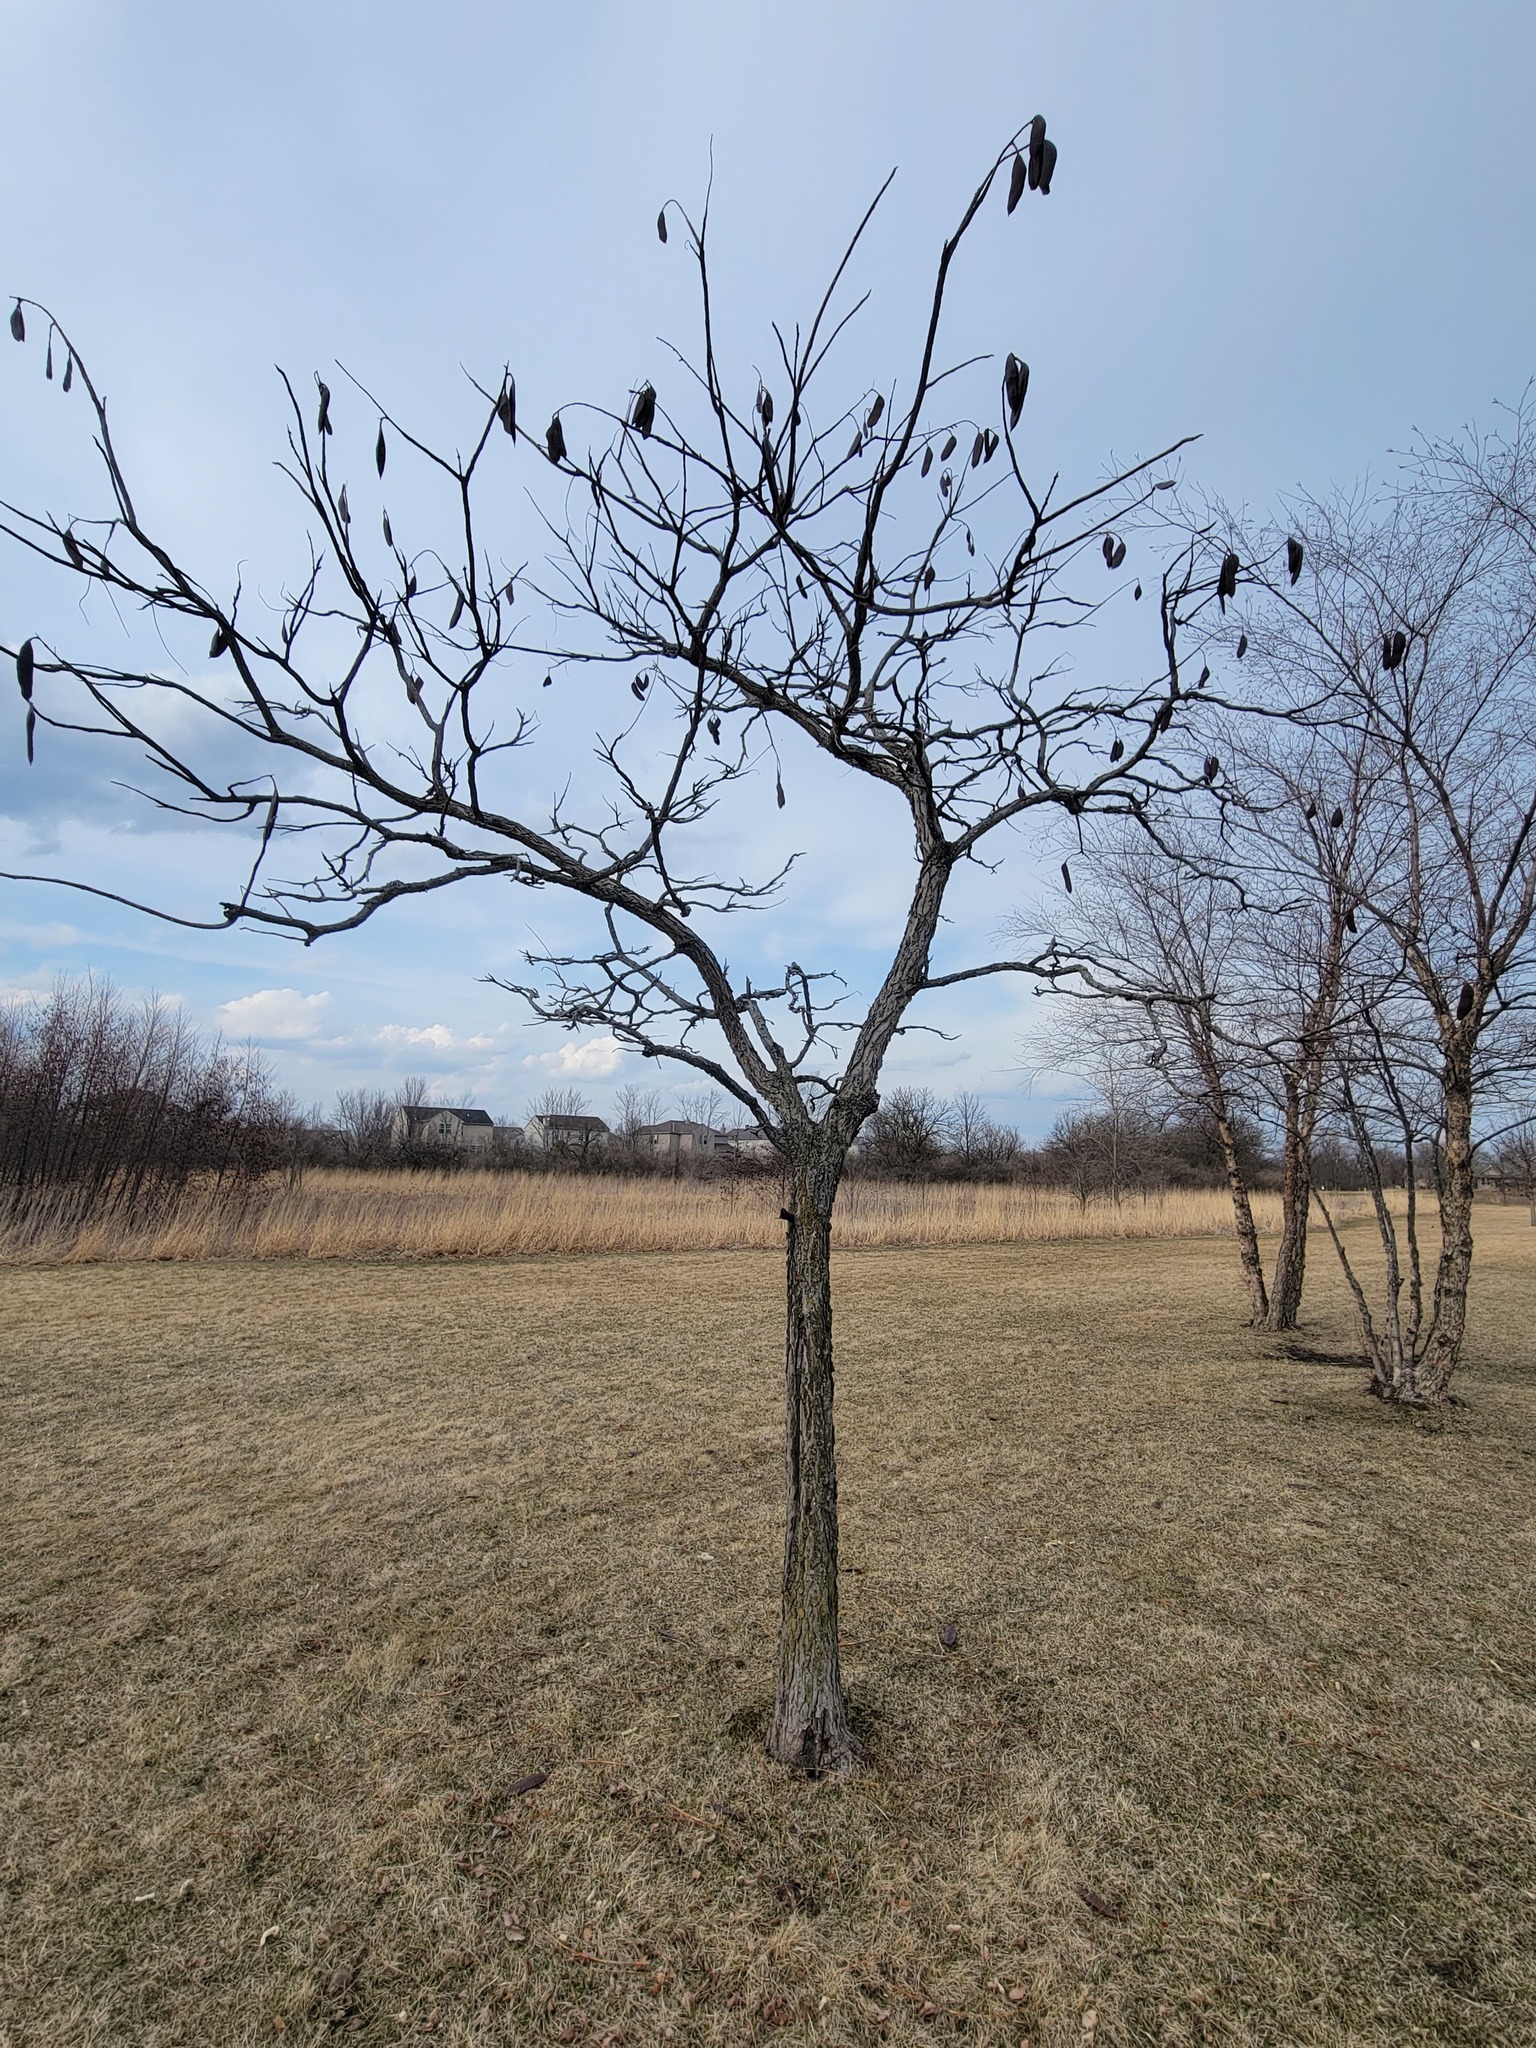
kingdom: Plantae
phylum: Tracheophyta
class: Magnoliopsida
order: Fabales
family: Fabaceae
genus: Gymnocladus
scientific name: Gymnocladus dioicus
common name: Kentucky coffee-tree
